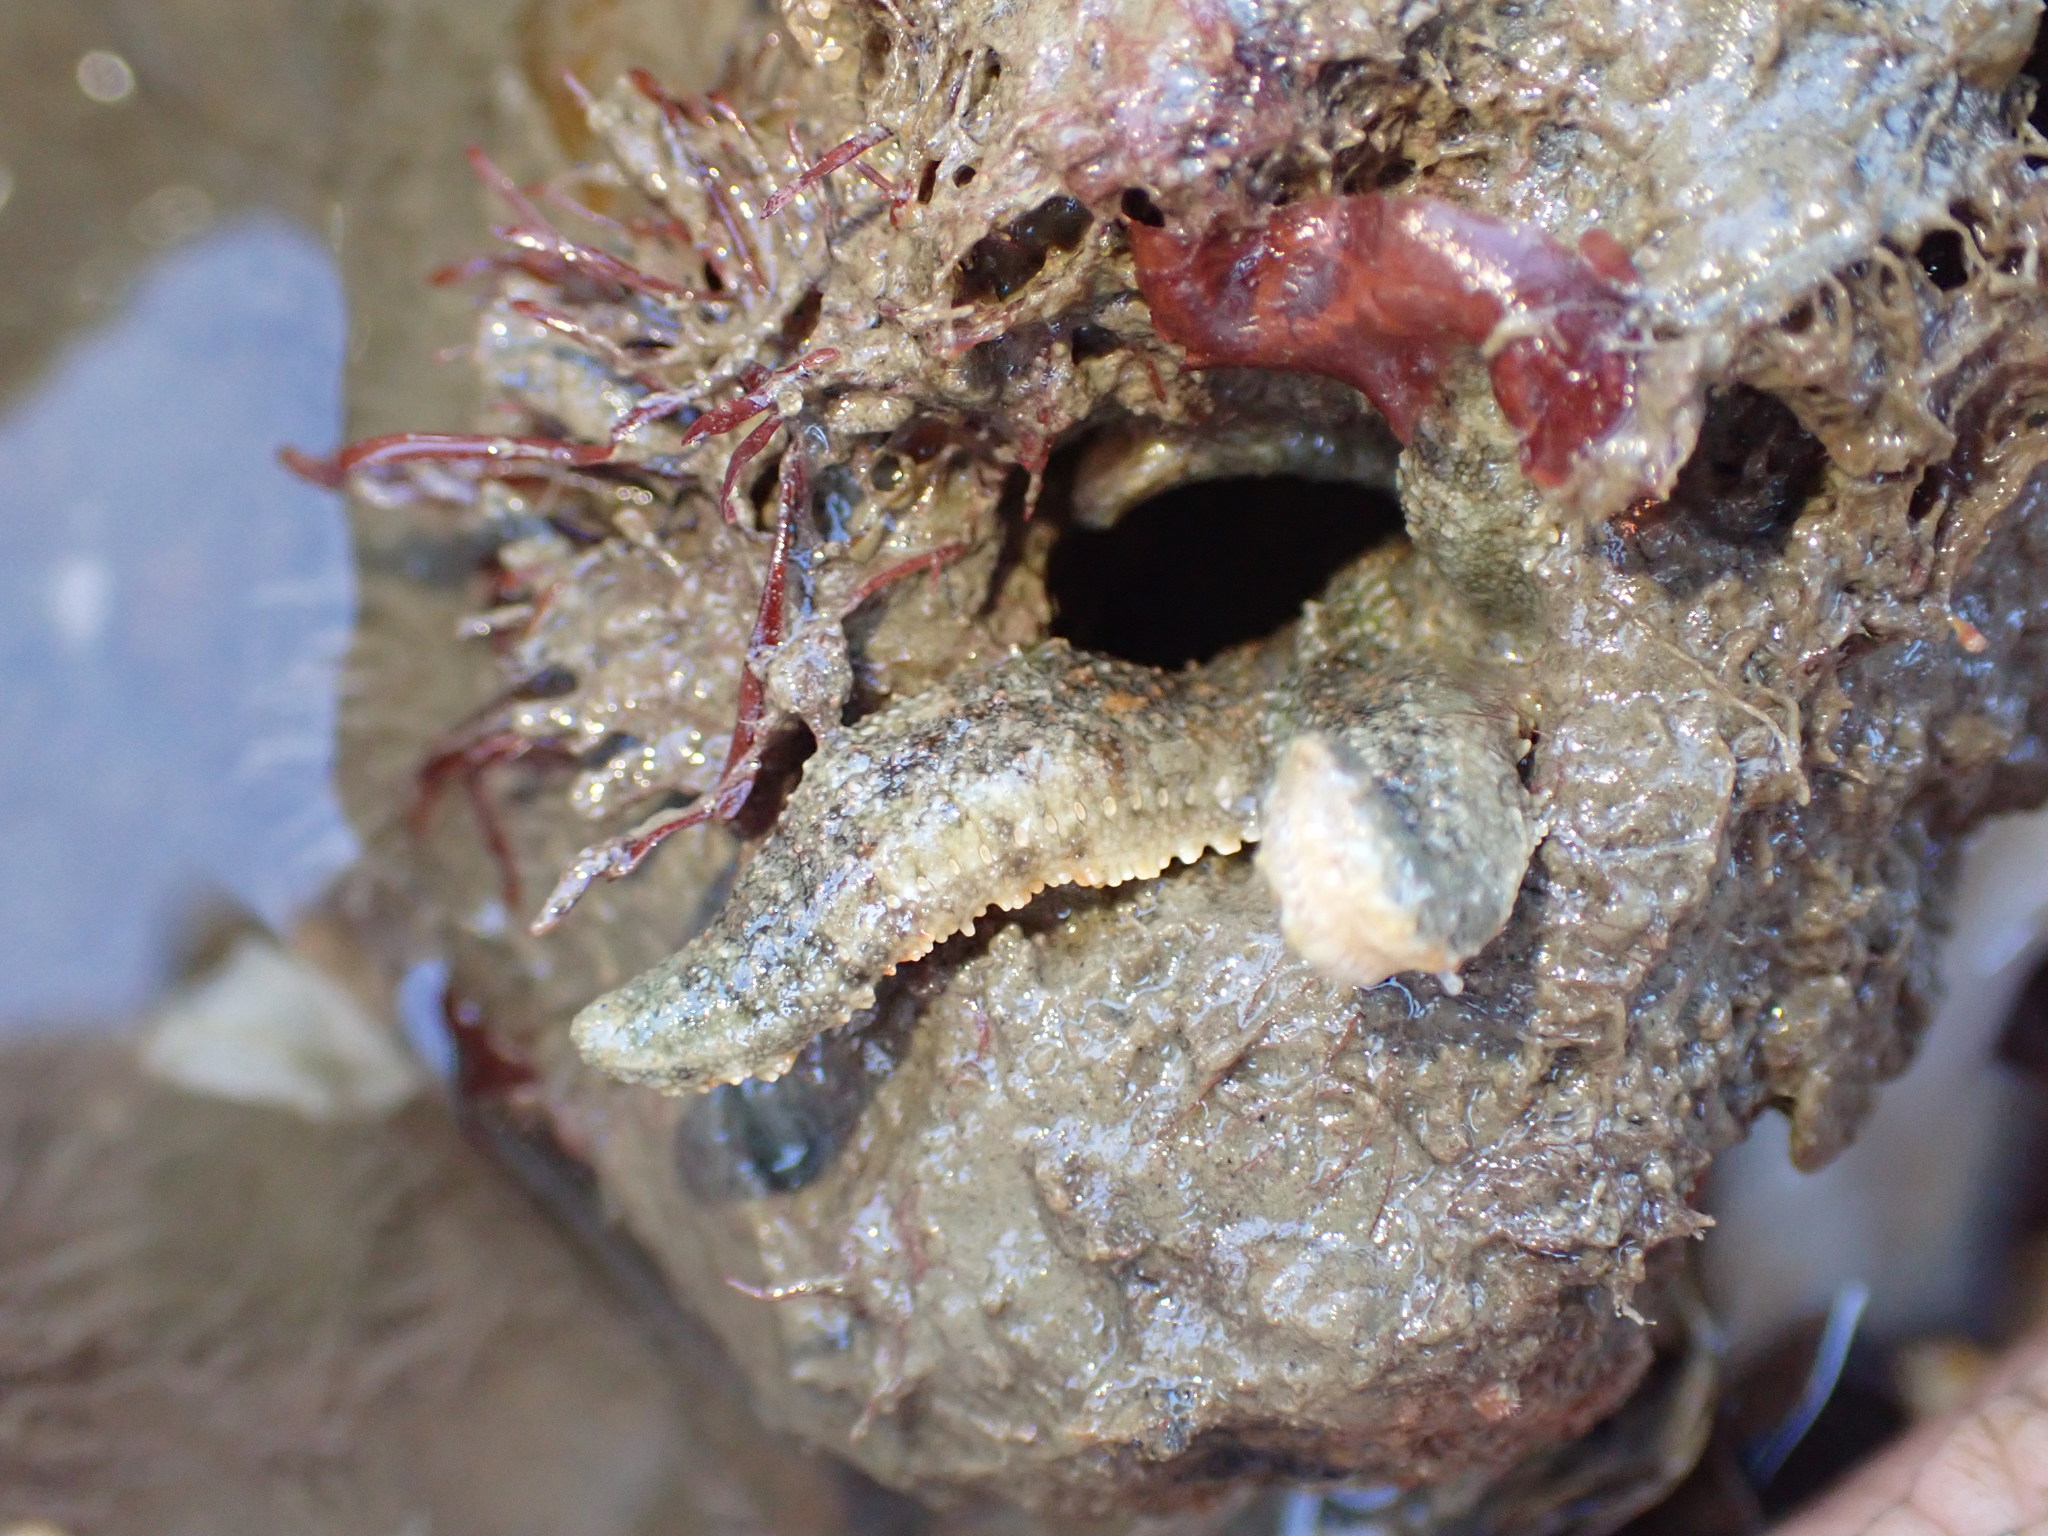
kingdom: Animalia
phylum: Echinodermata
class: Asteroidea
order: Forcipulatida
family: Stichasteridae
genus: Allostichaster
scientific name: Allostichaster polyplax
